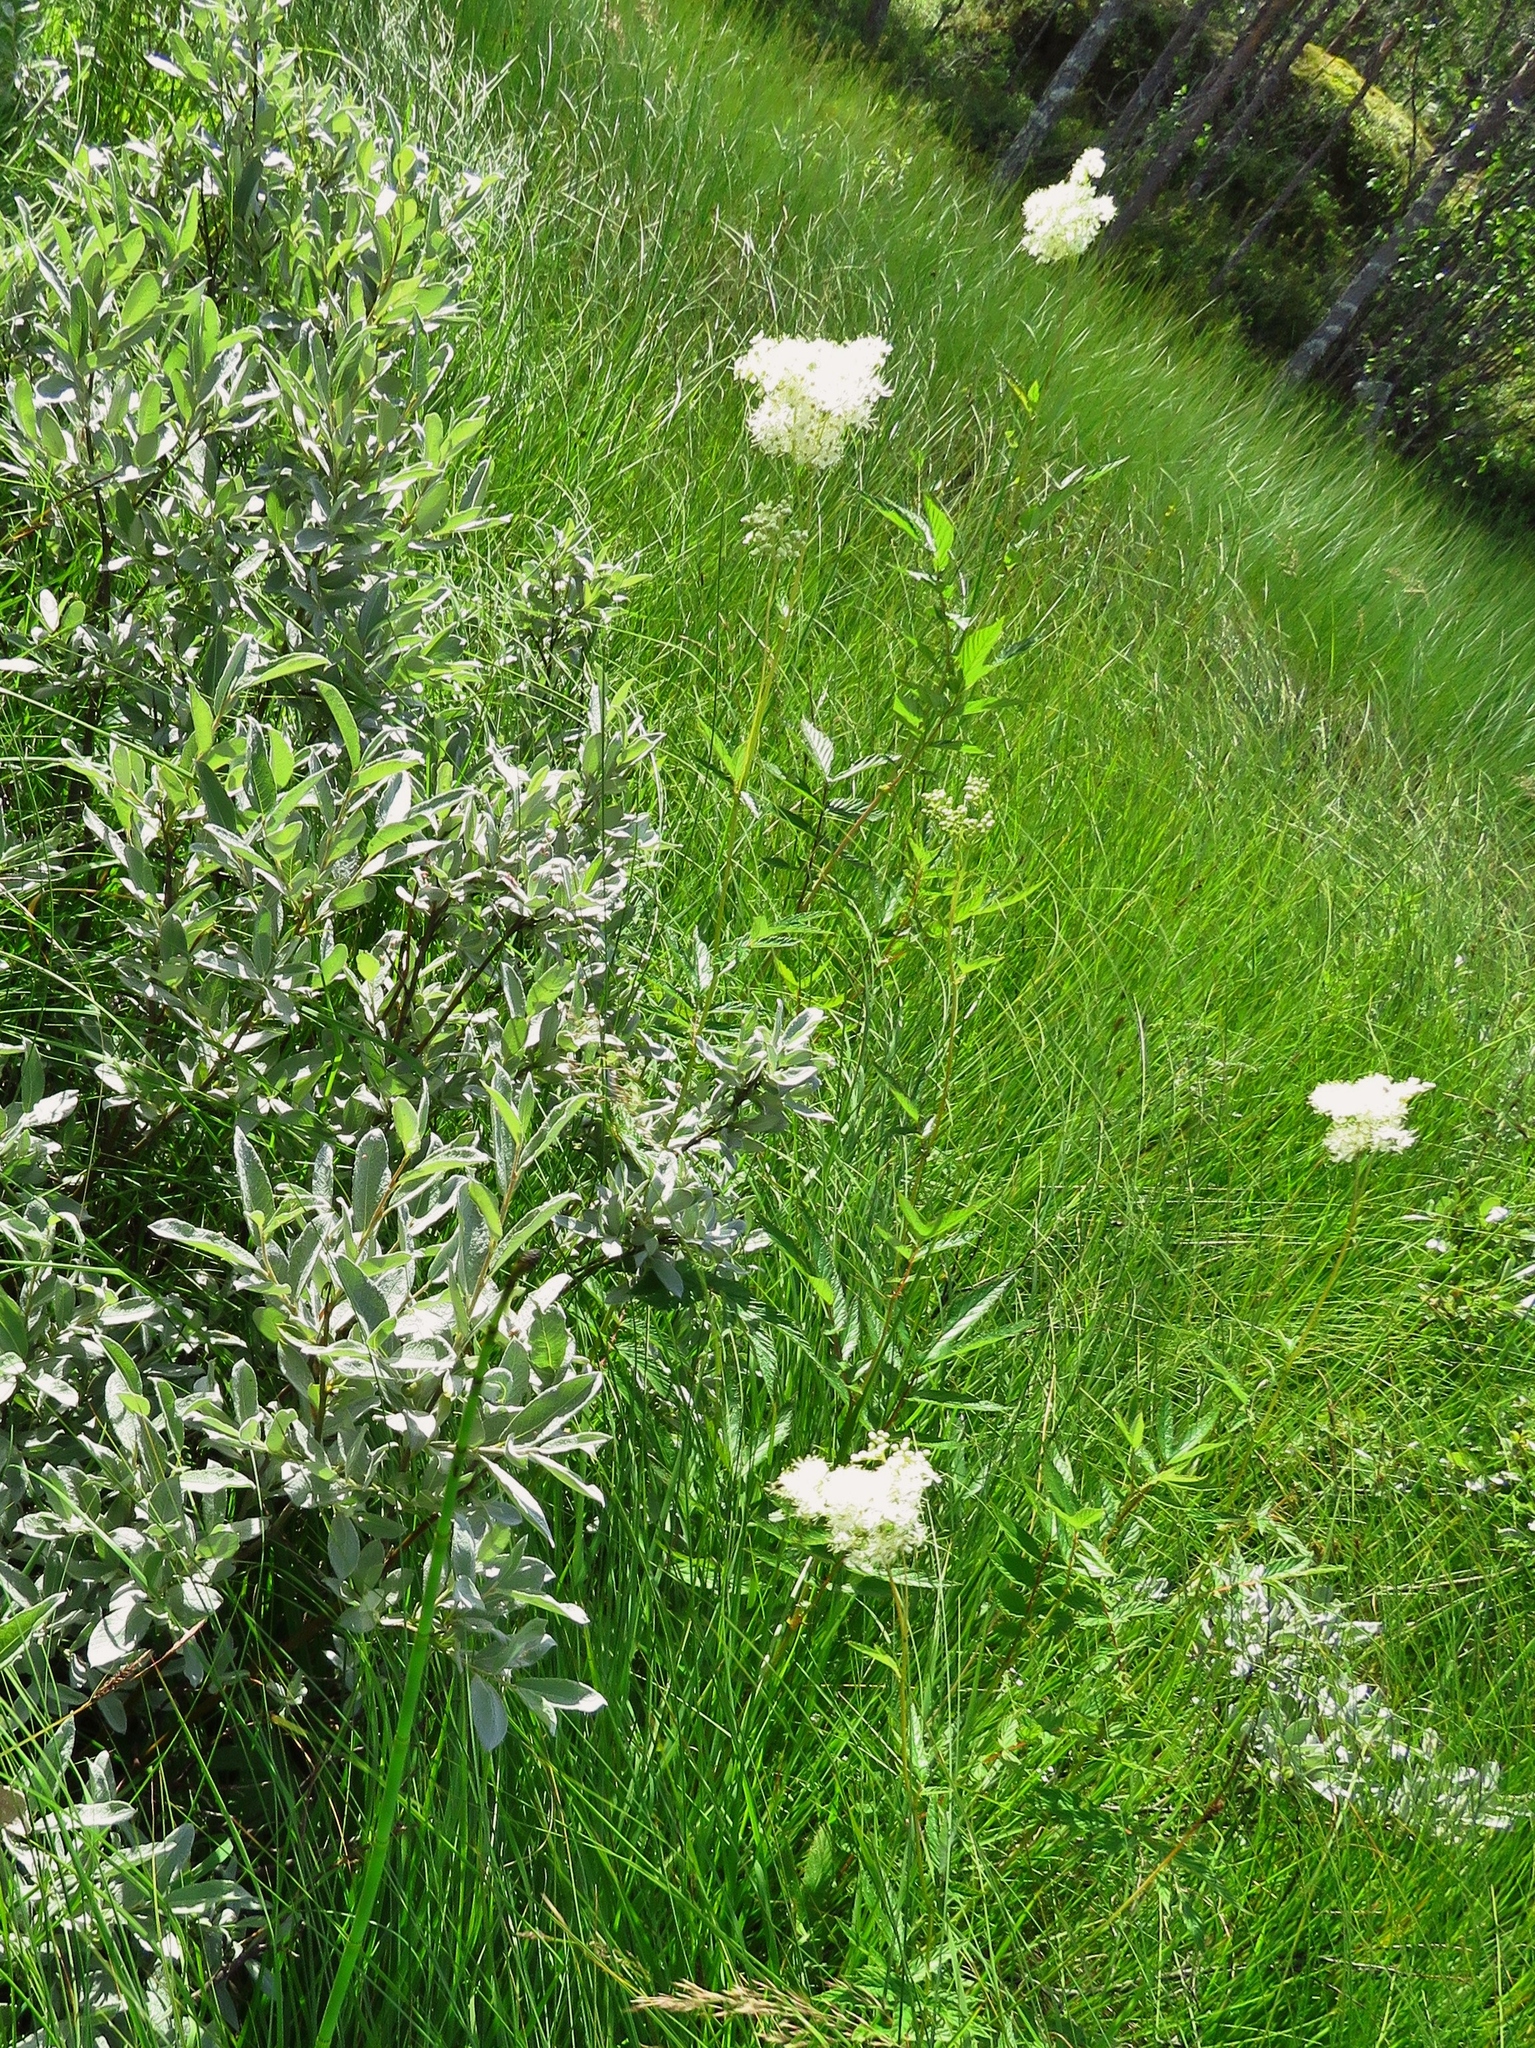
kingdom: Plantae
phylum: Tracheophyta
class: Magnoliopsida
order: Rosales
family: Rosaceae
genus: Filipendula
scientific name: Filipendula ulmaria
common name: Meadowsweet
